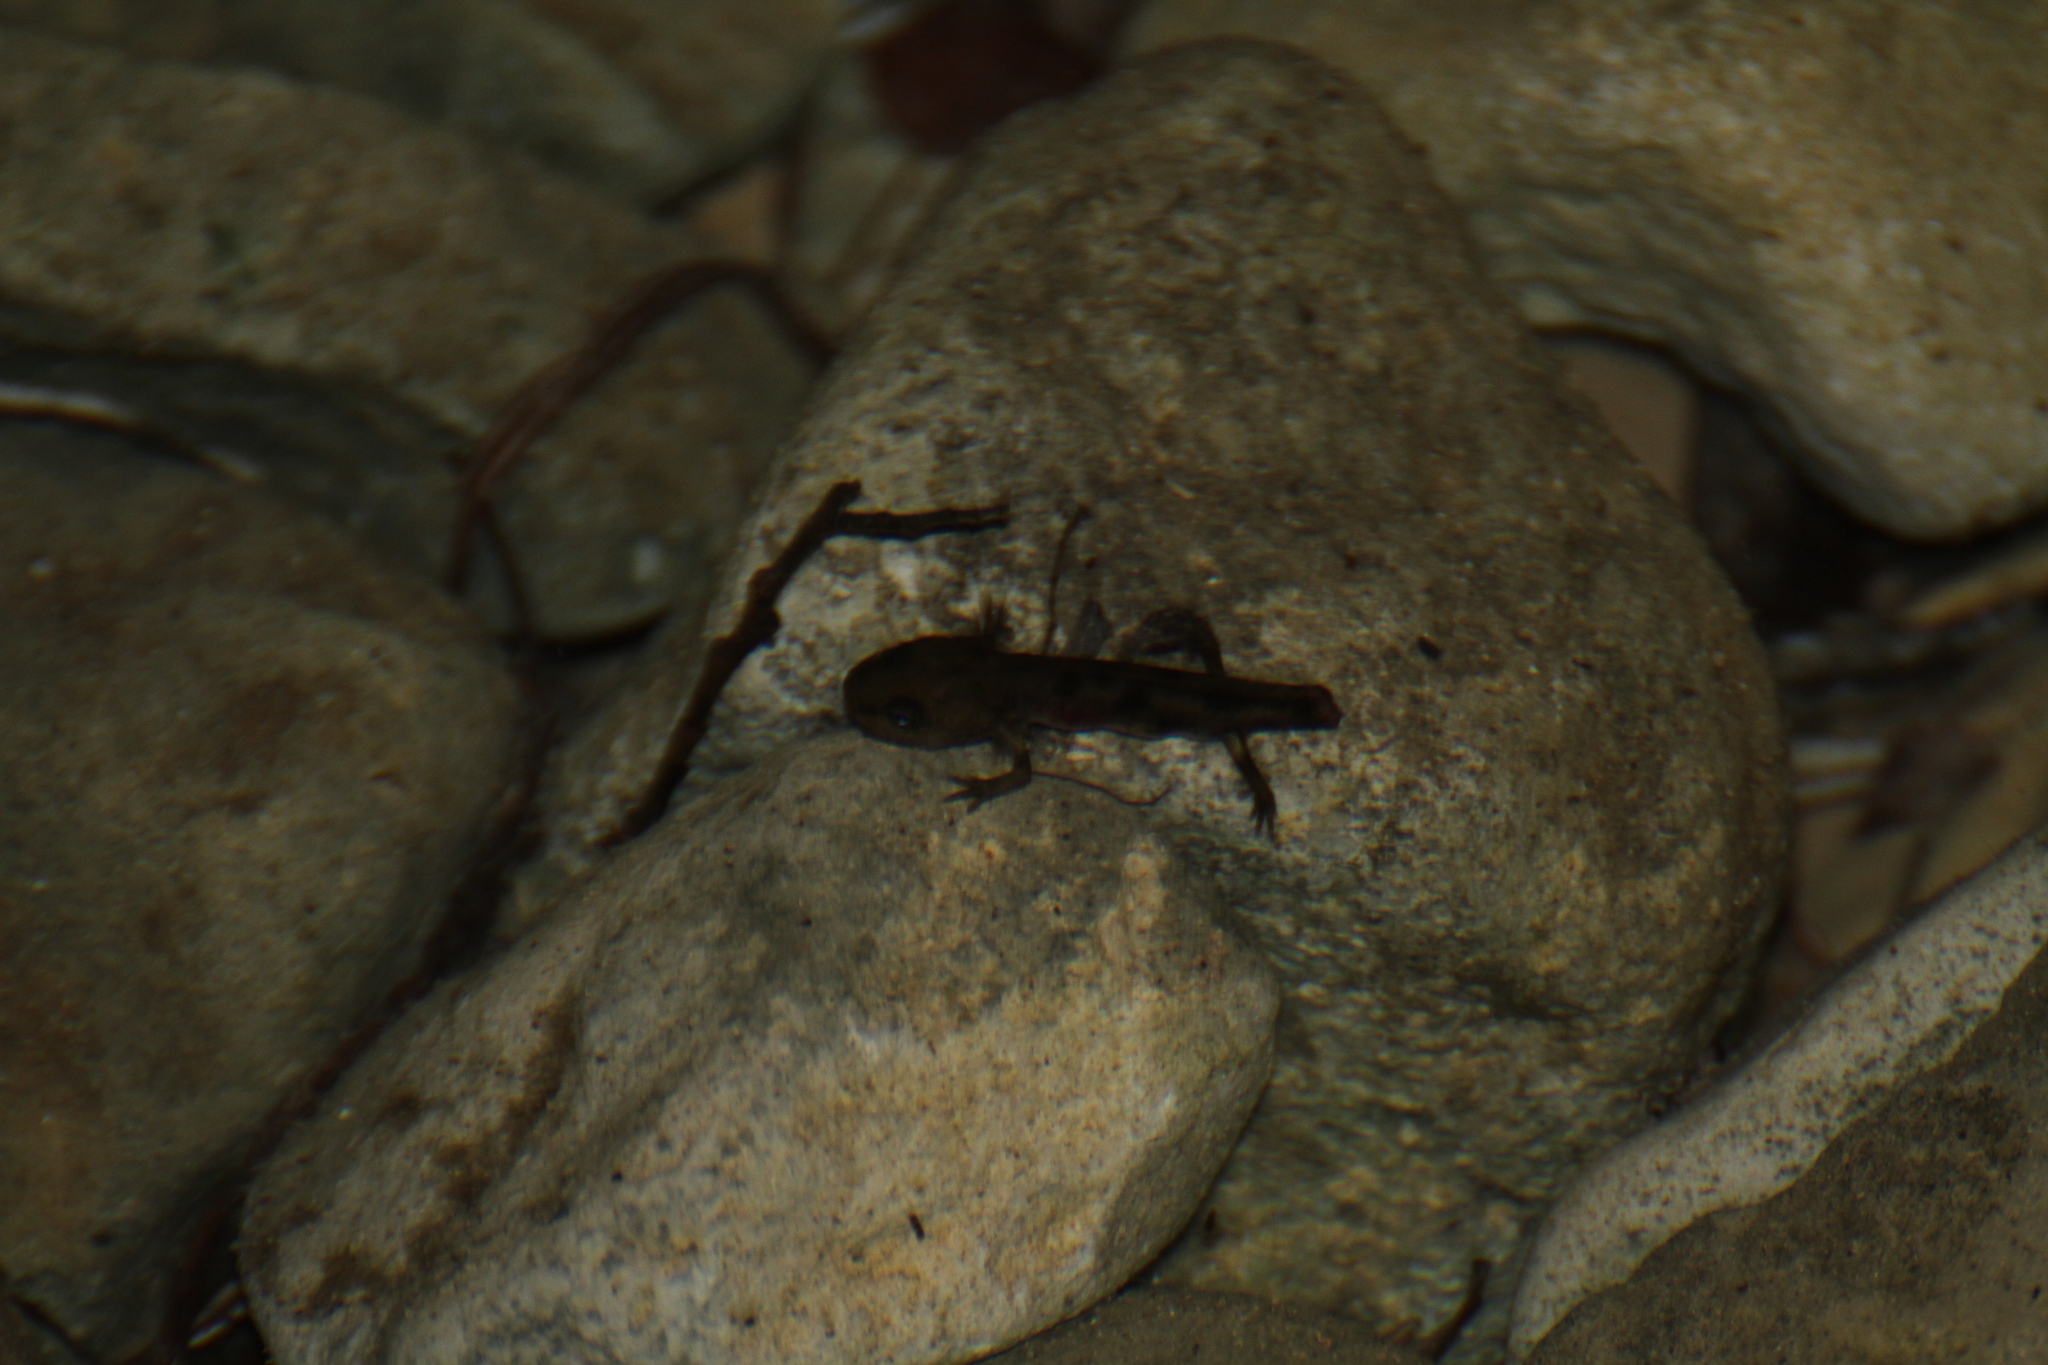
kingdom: Animalia
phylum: Chordata
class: Amphibia
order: Caudata
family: Salamandridae
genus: Salamandra
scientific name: Salamandra salamandra
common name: Fire salamander
